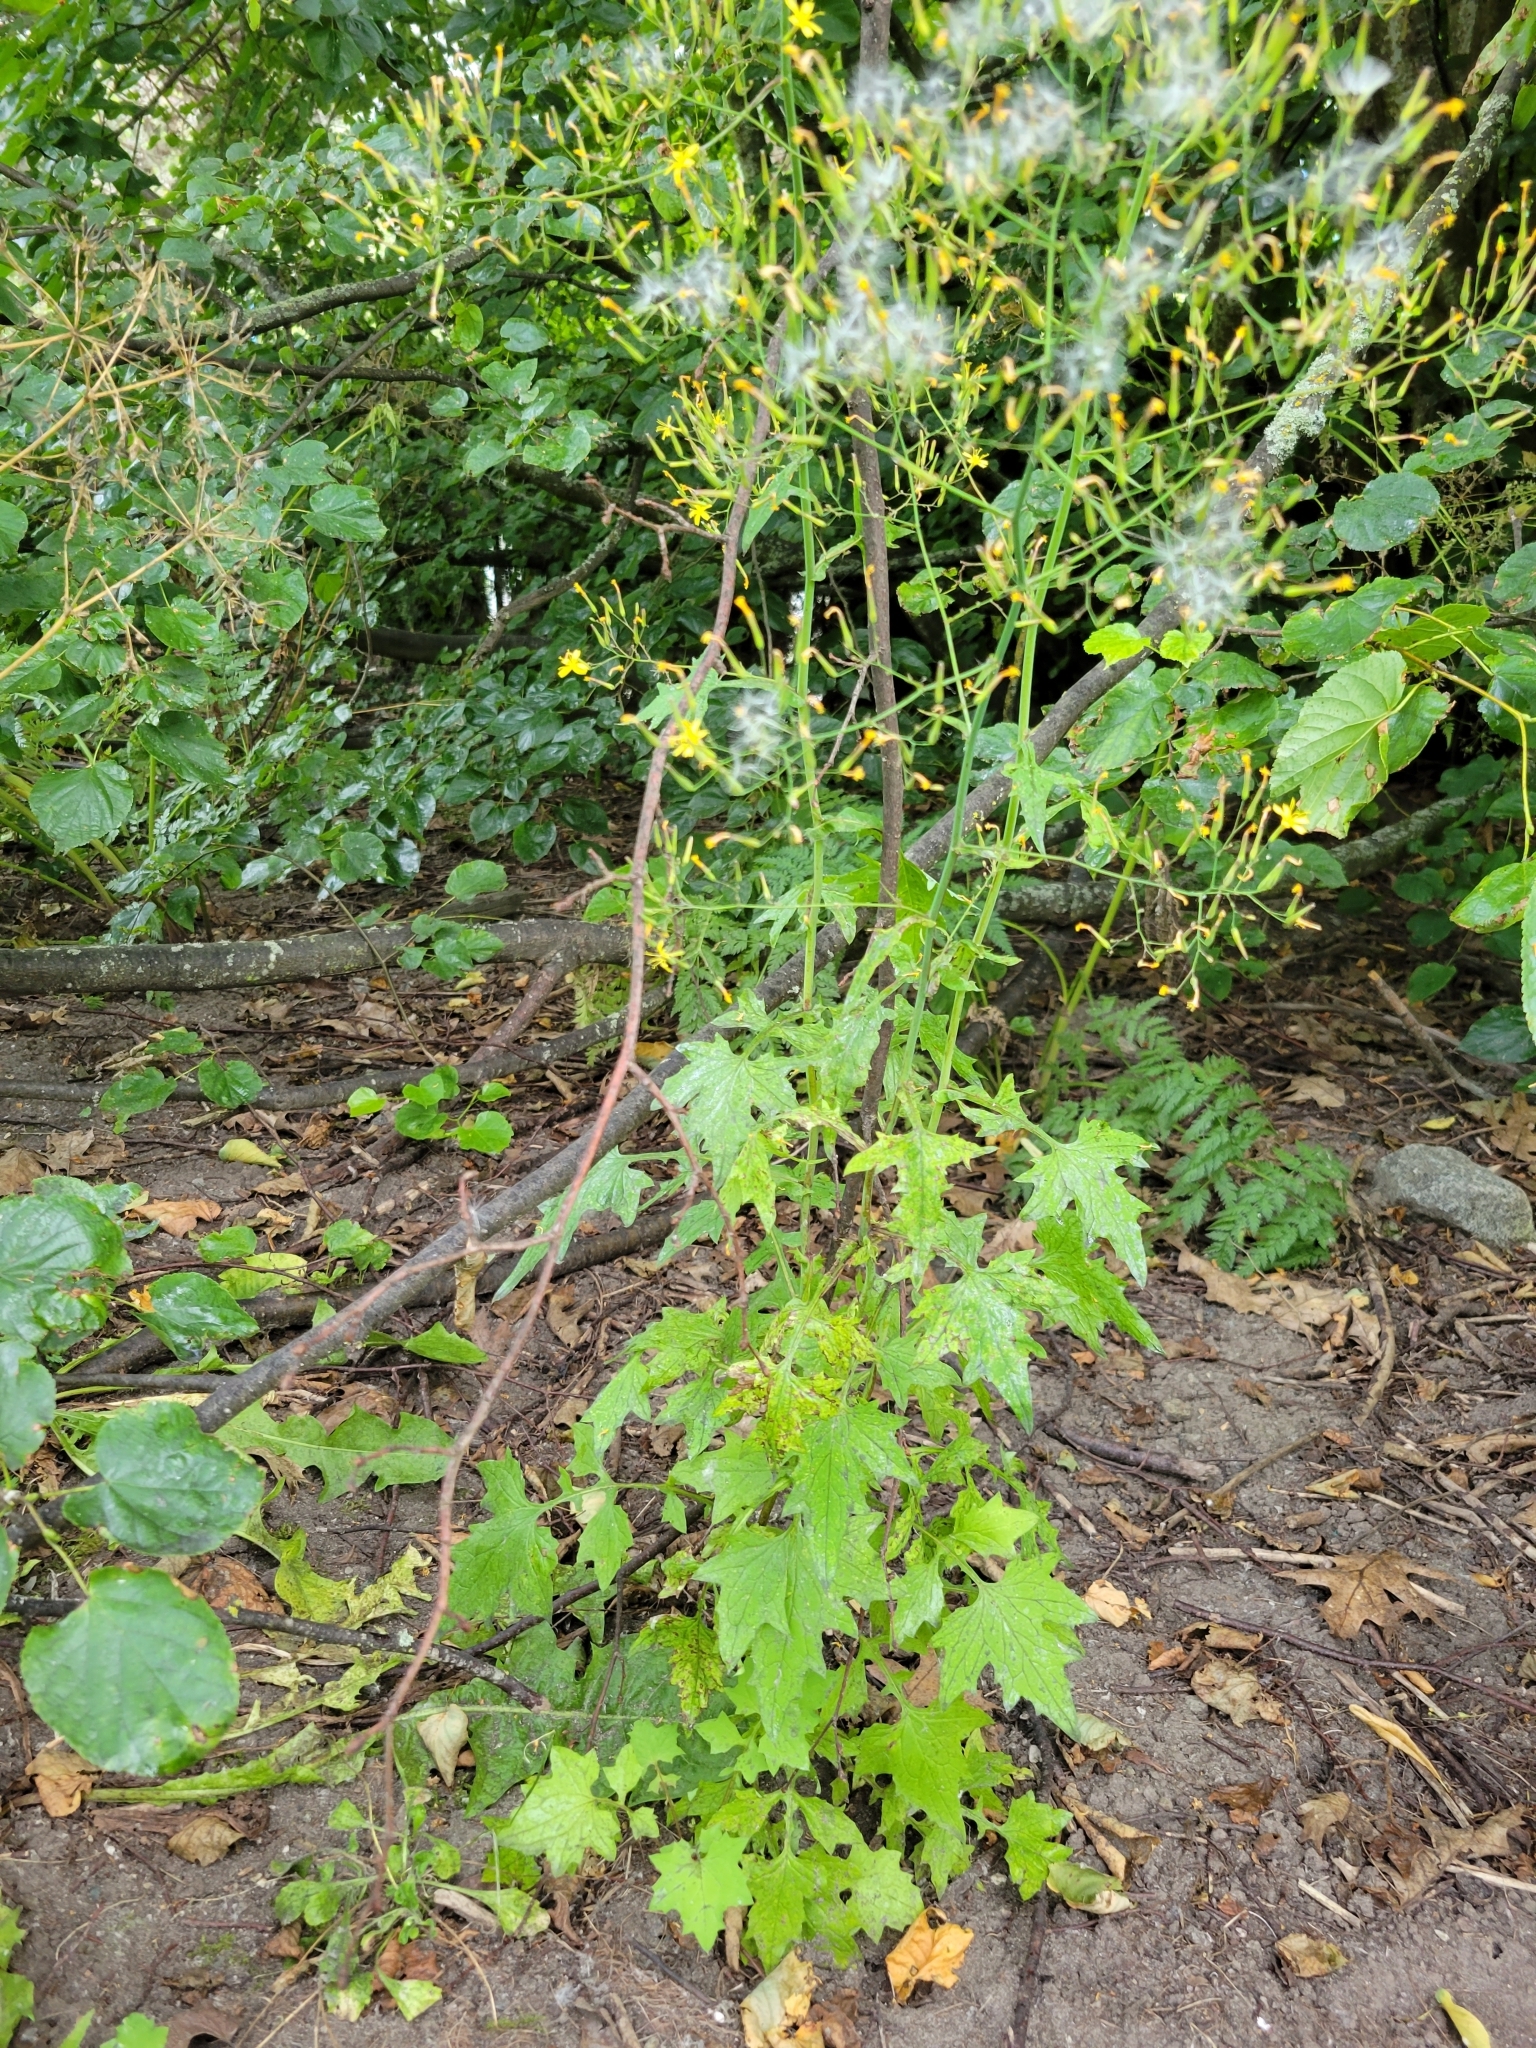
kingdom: Plantae
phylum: Tracheophyta
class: Magnoliopsida
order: Asterales
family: Asteraceae
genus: Mycelis
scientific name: Mycelis muralis
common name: Wall lettuce
